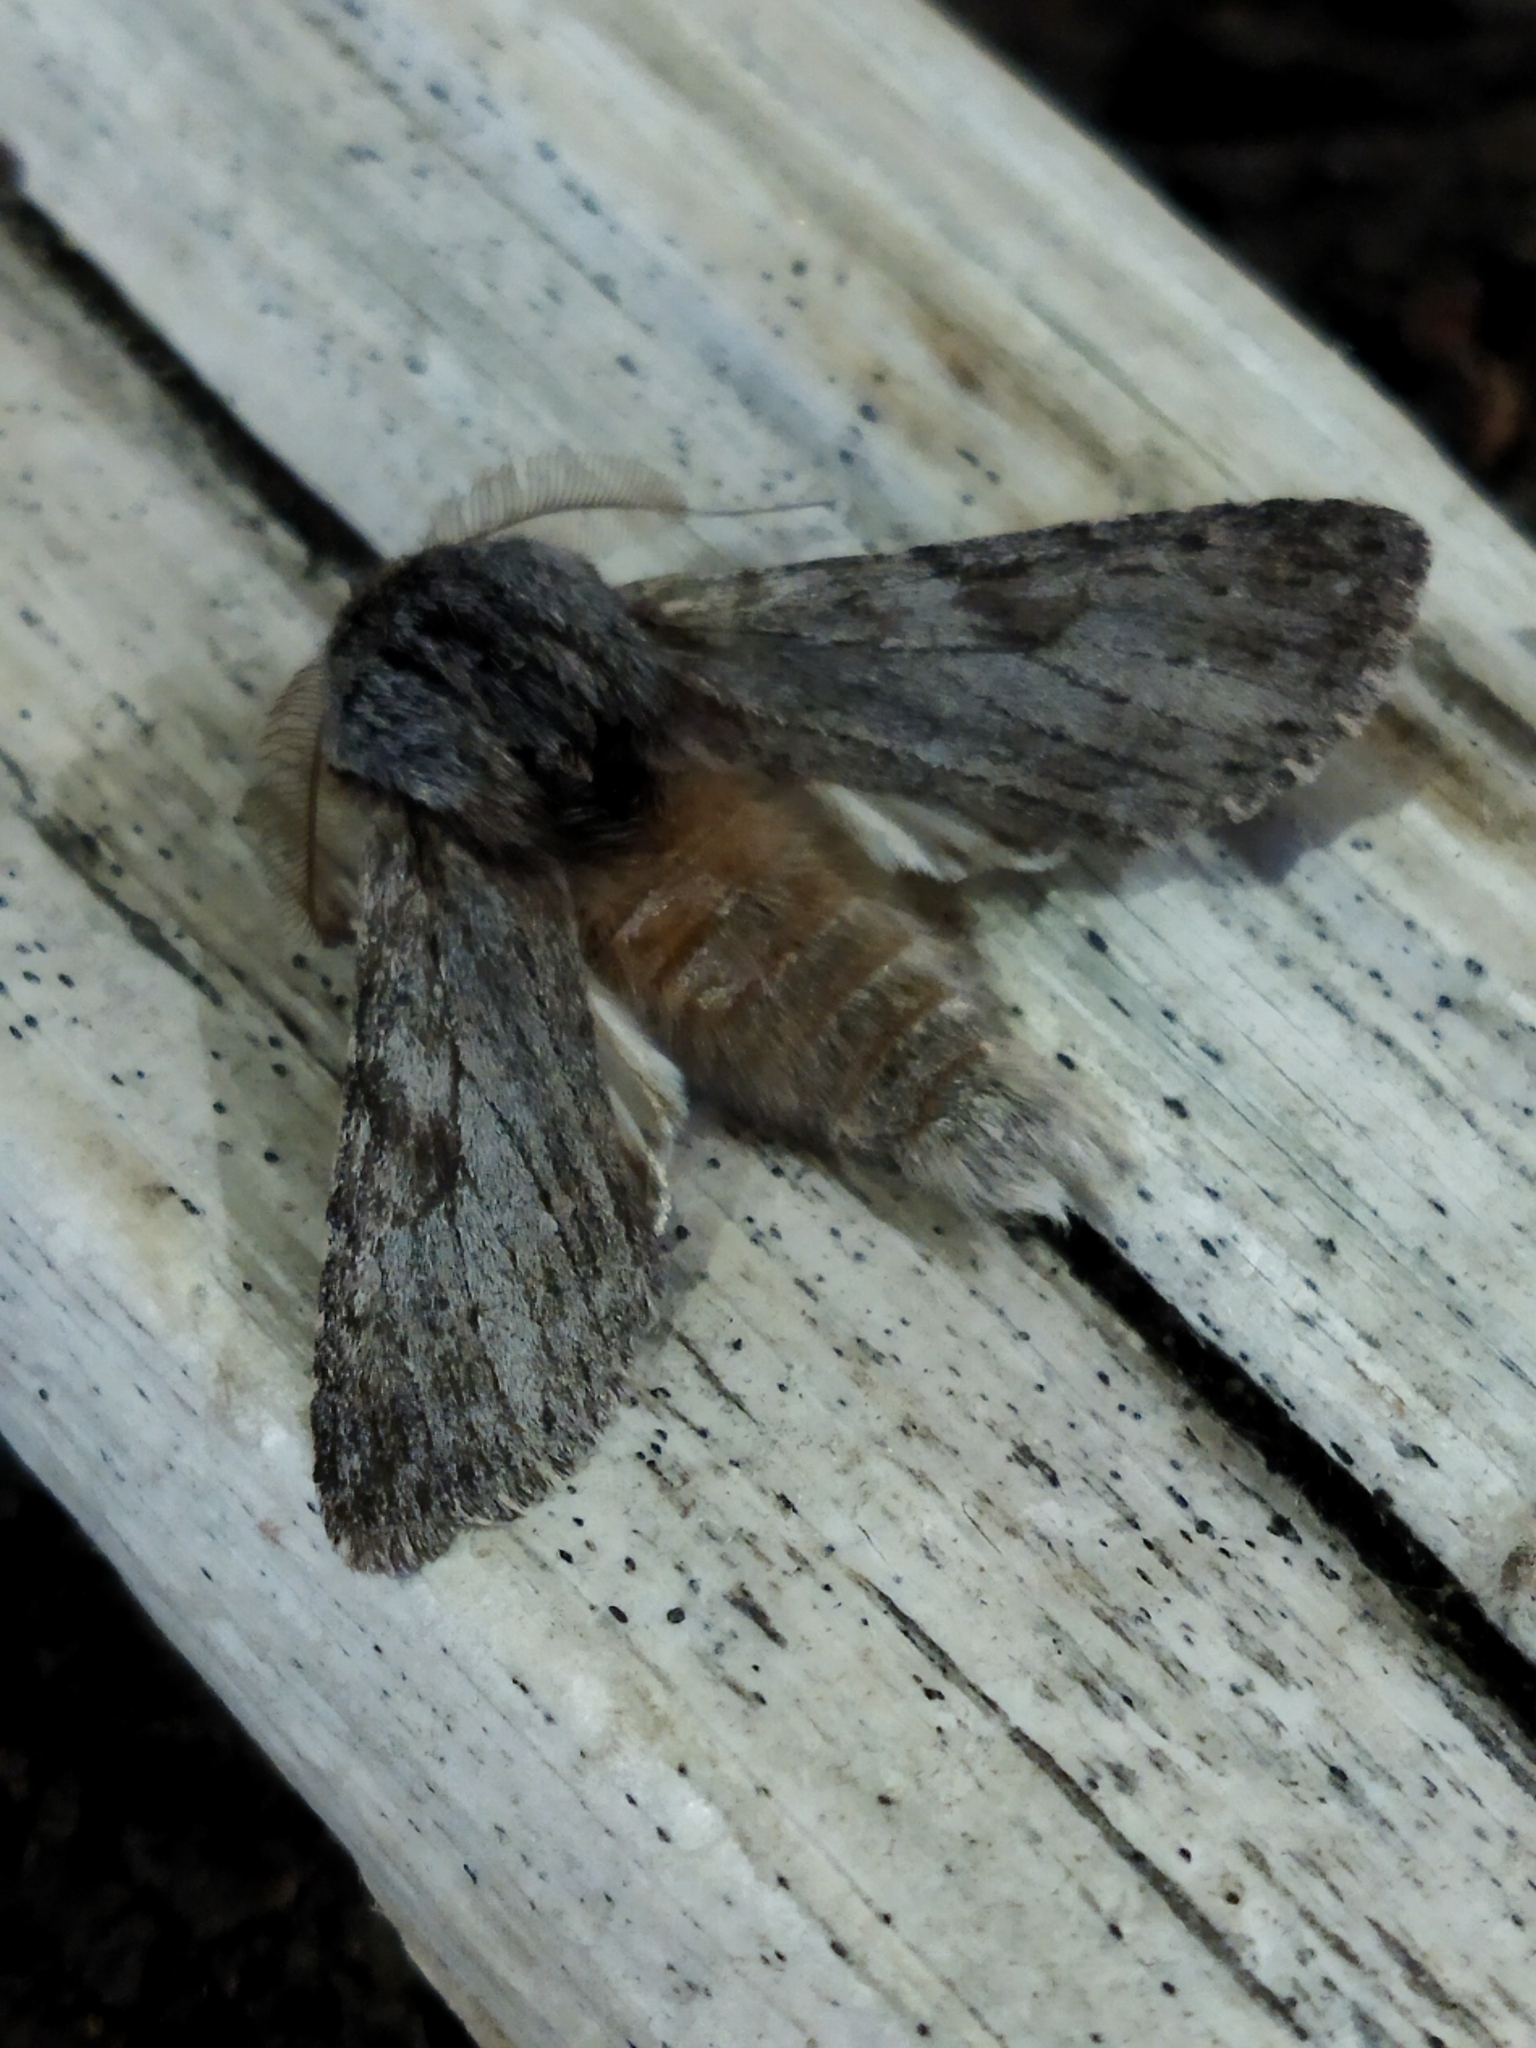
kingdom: Animalia
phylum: Arthropoda
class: Insecta
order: Lepidoptera
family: Notodontidae
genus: Dicranura
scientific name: Dicranura ulmi
